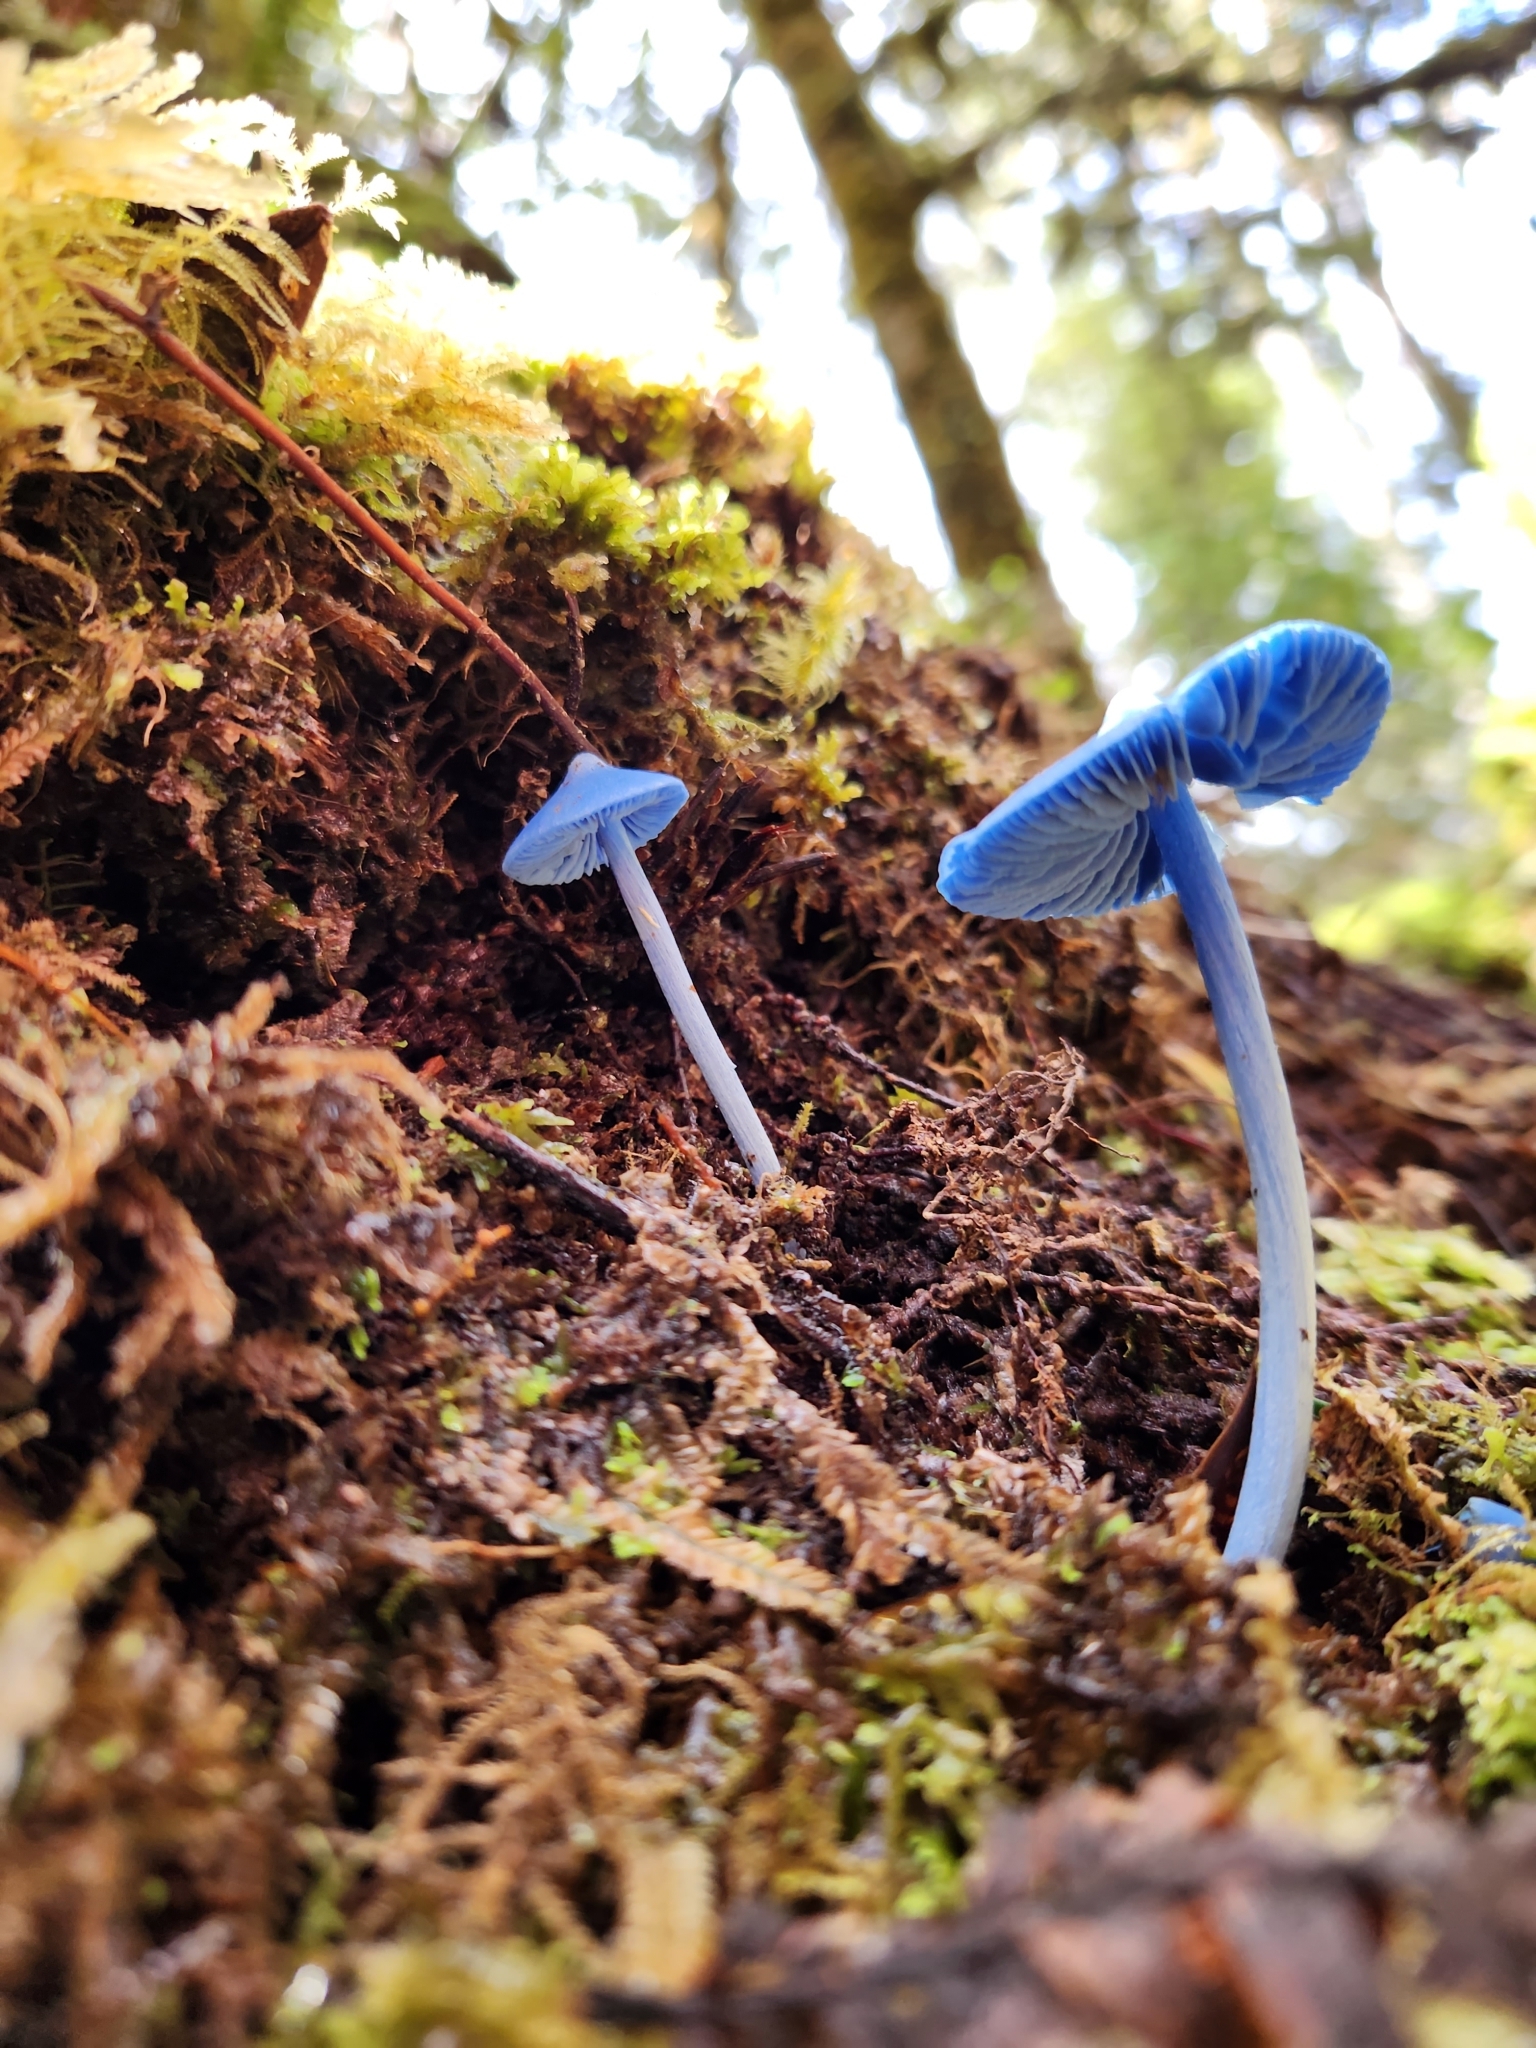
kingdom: Fungi
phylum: Basidiomycota
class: Agaricomycetes
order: Agaricales
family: Entolomataceae
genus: Entoloma
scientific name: Entoloma hochstetteri
